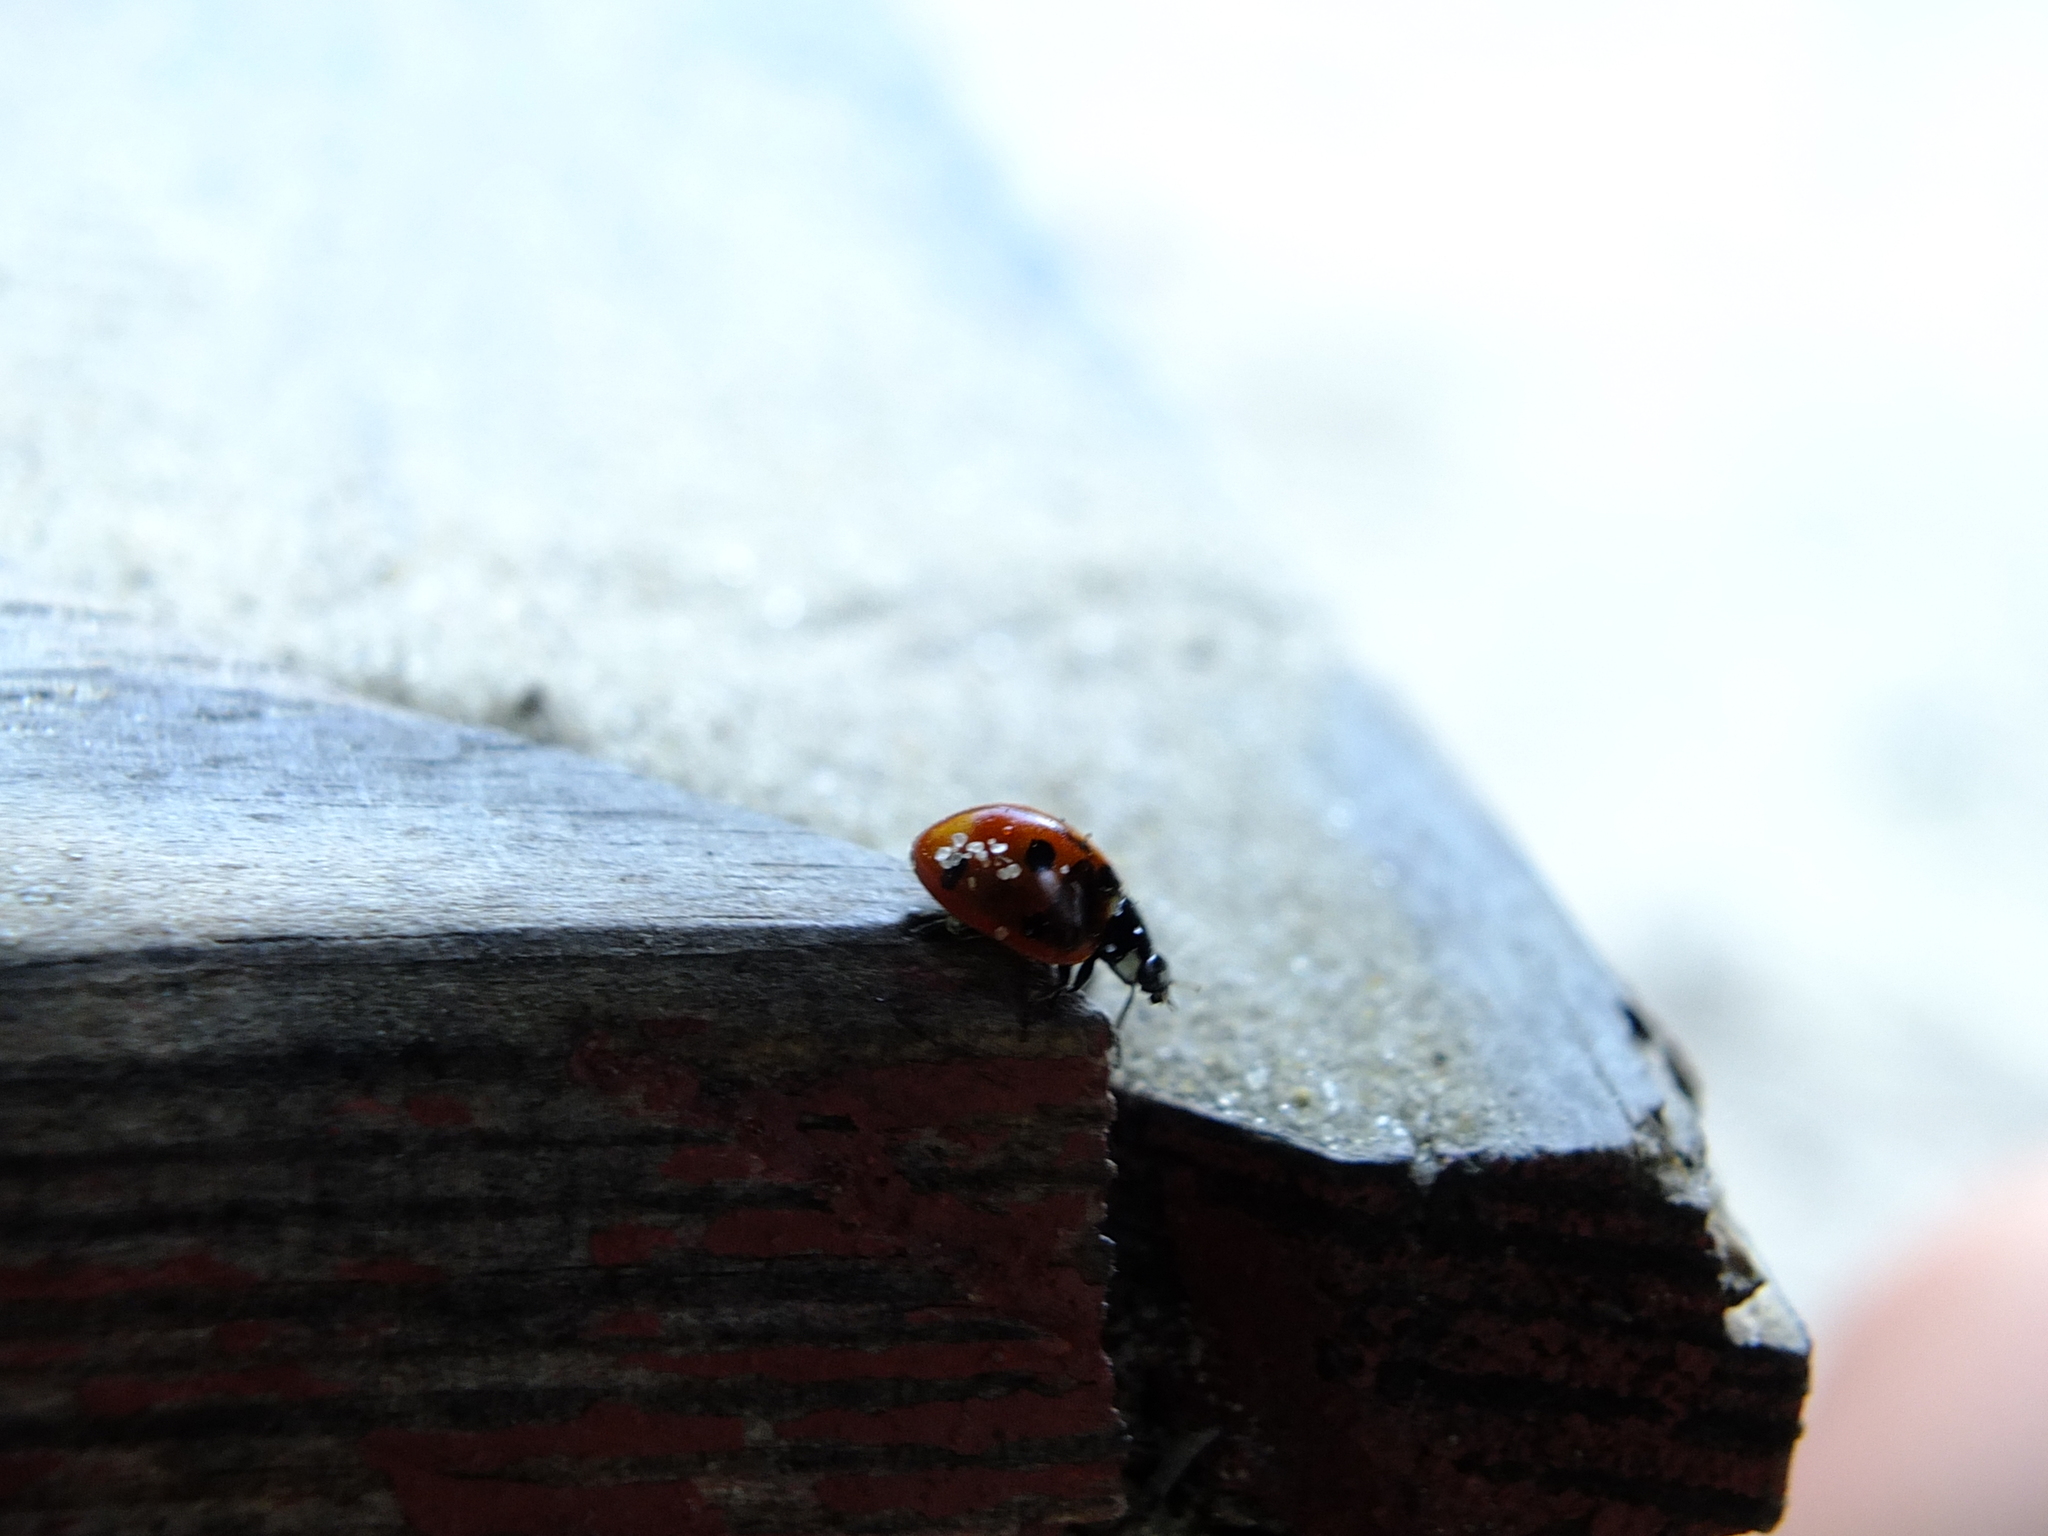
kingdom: Animalia
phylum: Arthropoda
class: Insecta
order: Coleoptera
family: Coccinellidae
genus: Coccinella
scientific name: Coccinella septempunctata
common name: Sevenspotted lady beetle
